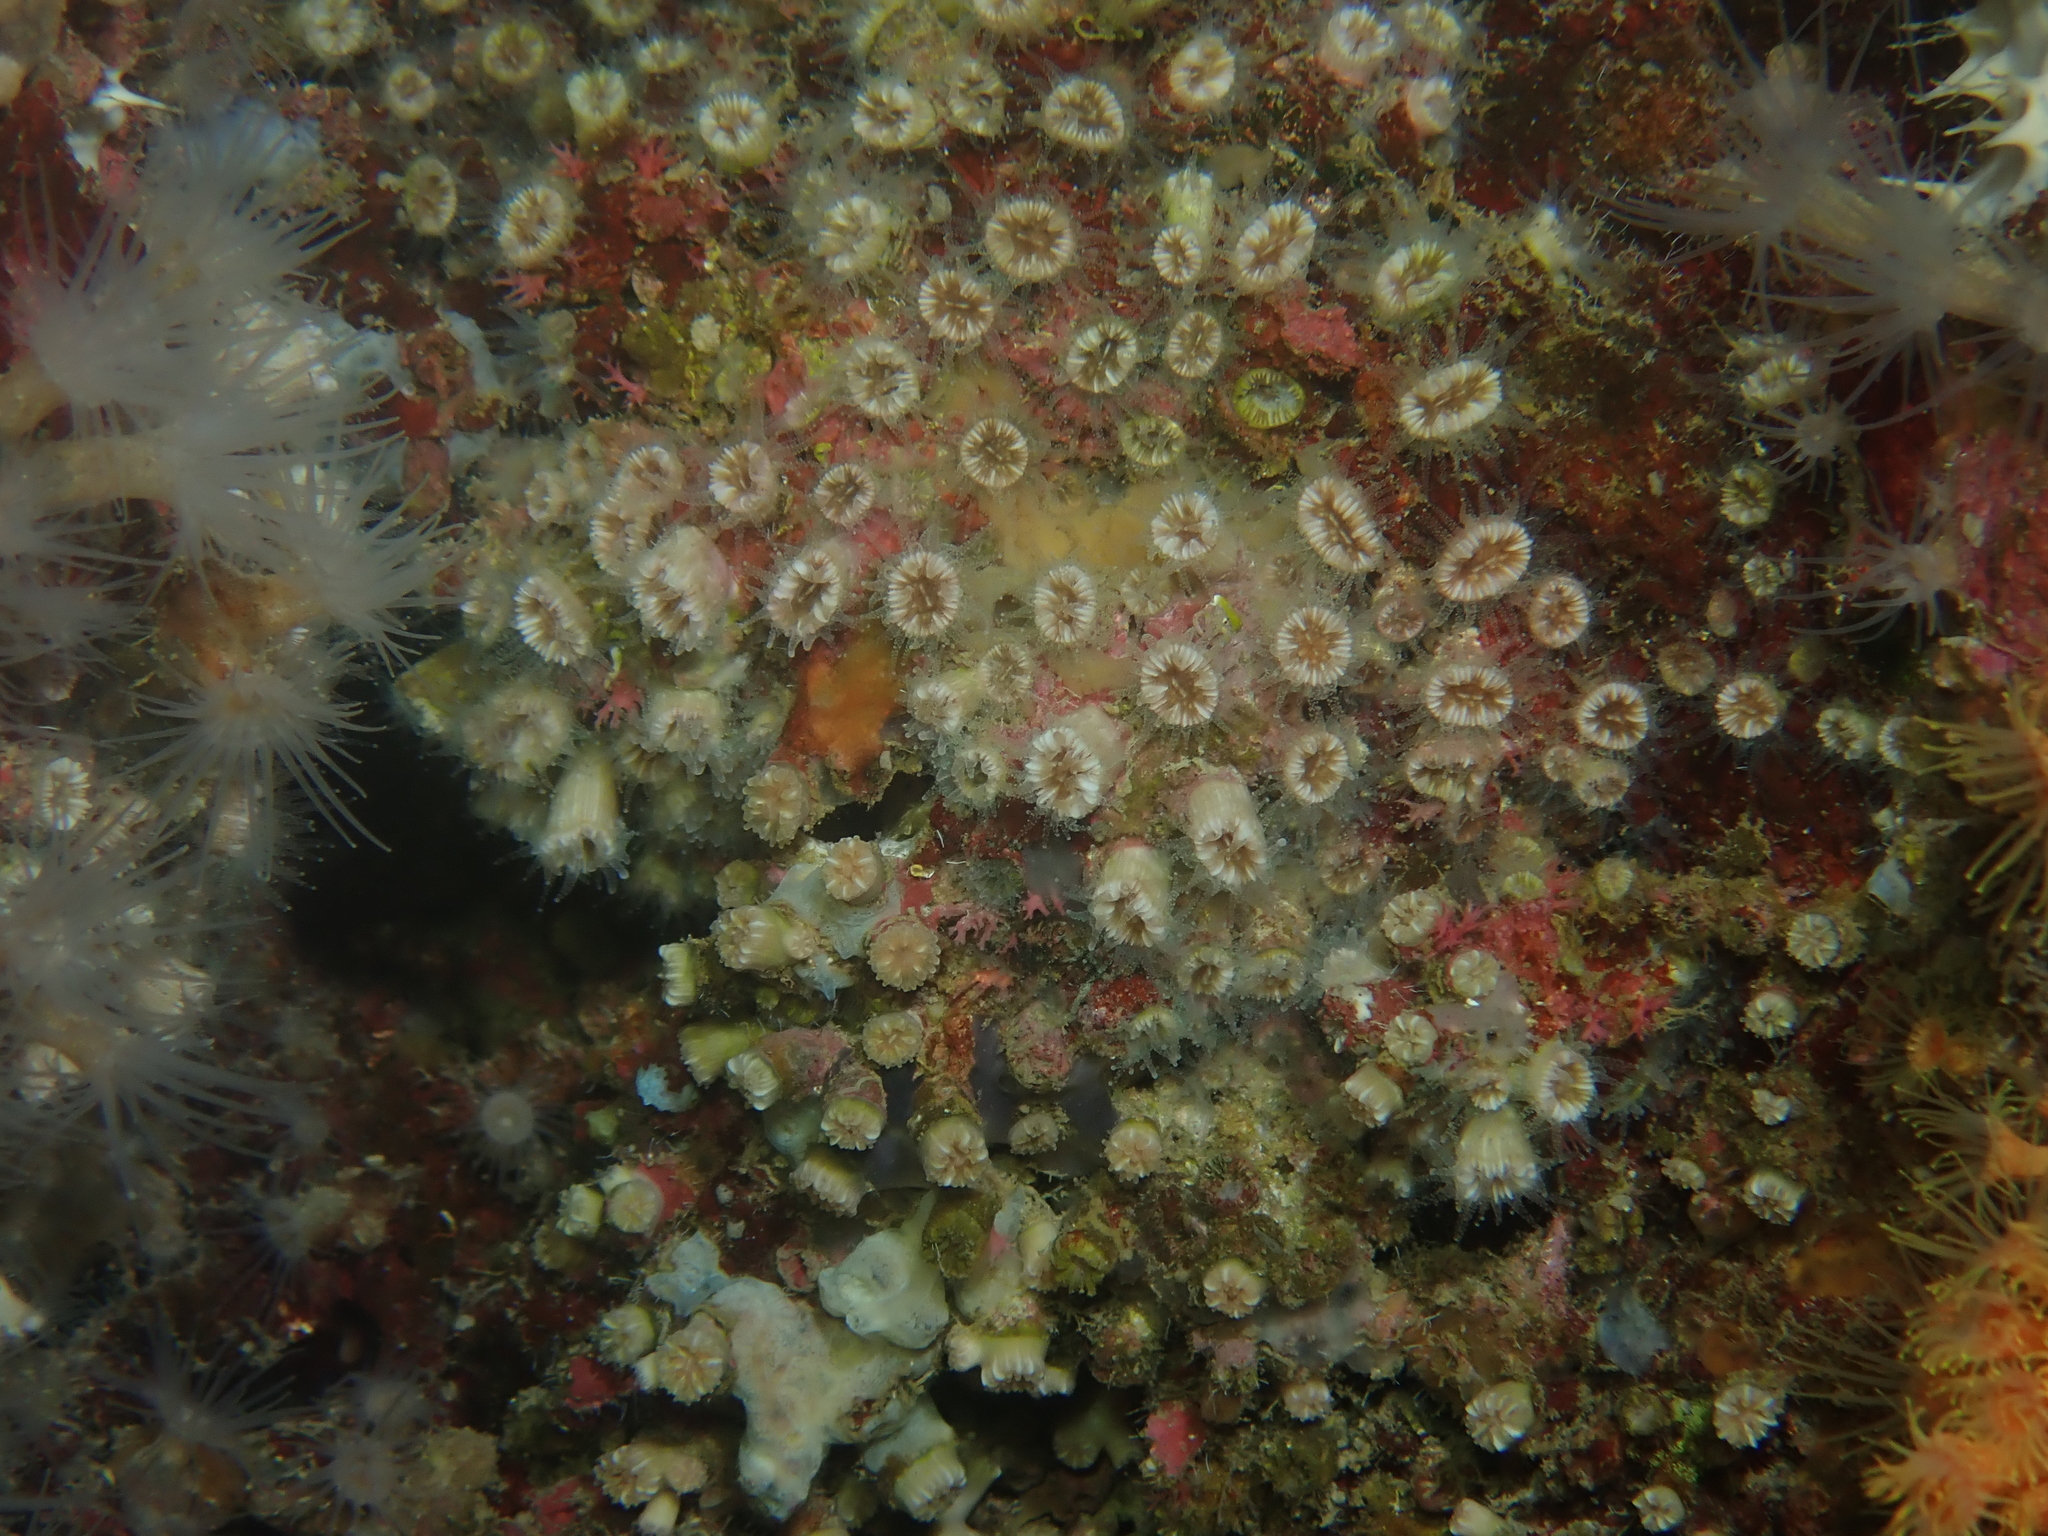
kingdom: Animalia
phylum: Cnidaria
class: Anthozoa
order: Scleractinia
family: Caryophylliidae
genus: Polycyathus
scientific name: Polycyathus muellerae
